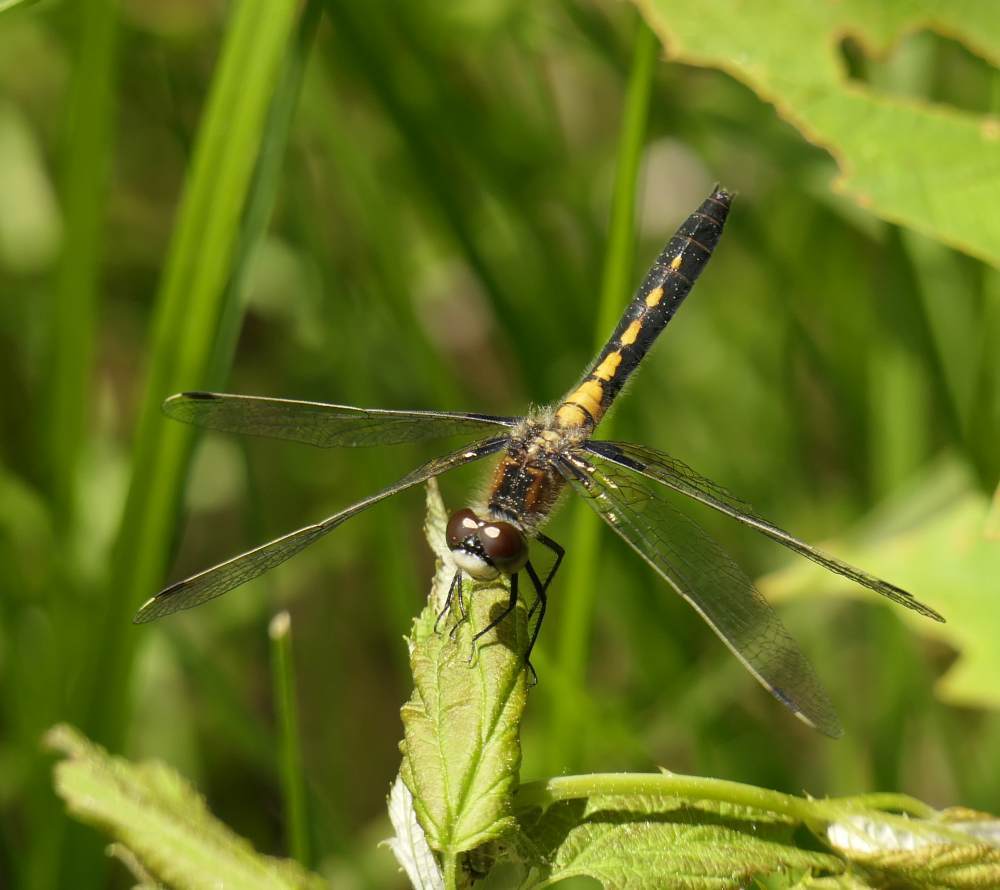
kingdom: Animalia
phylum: Arthropoda
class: Insecta
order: Odonata
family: Libellulidae
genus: Leucorrhinia
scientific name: Leucorrhinia frigida
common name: Frosted whiteface
